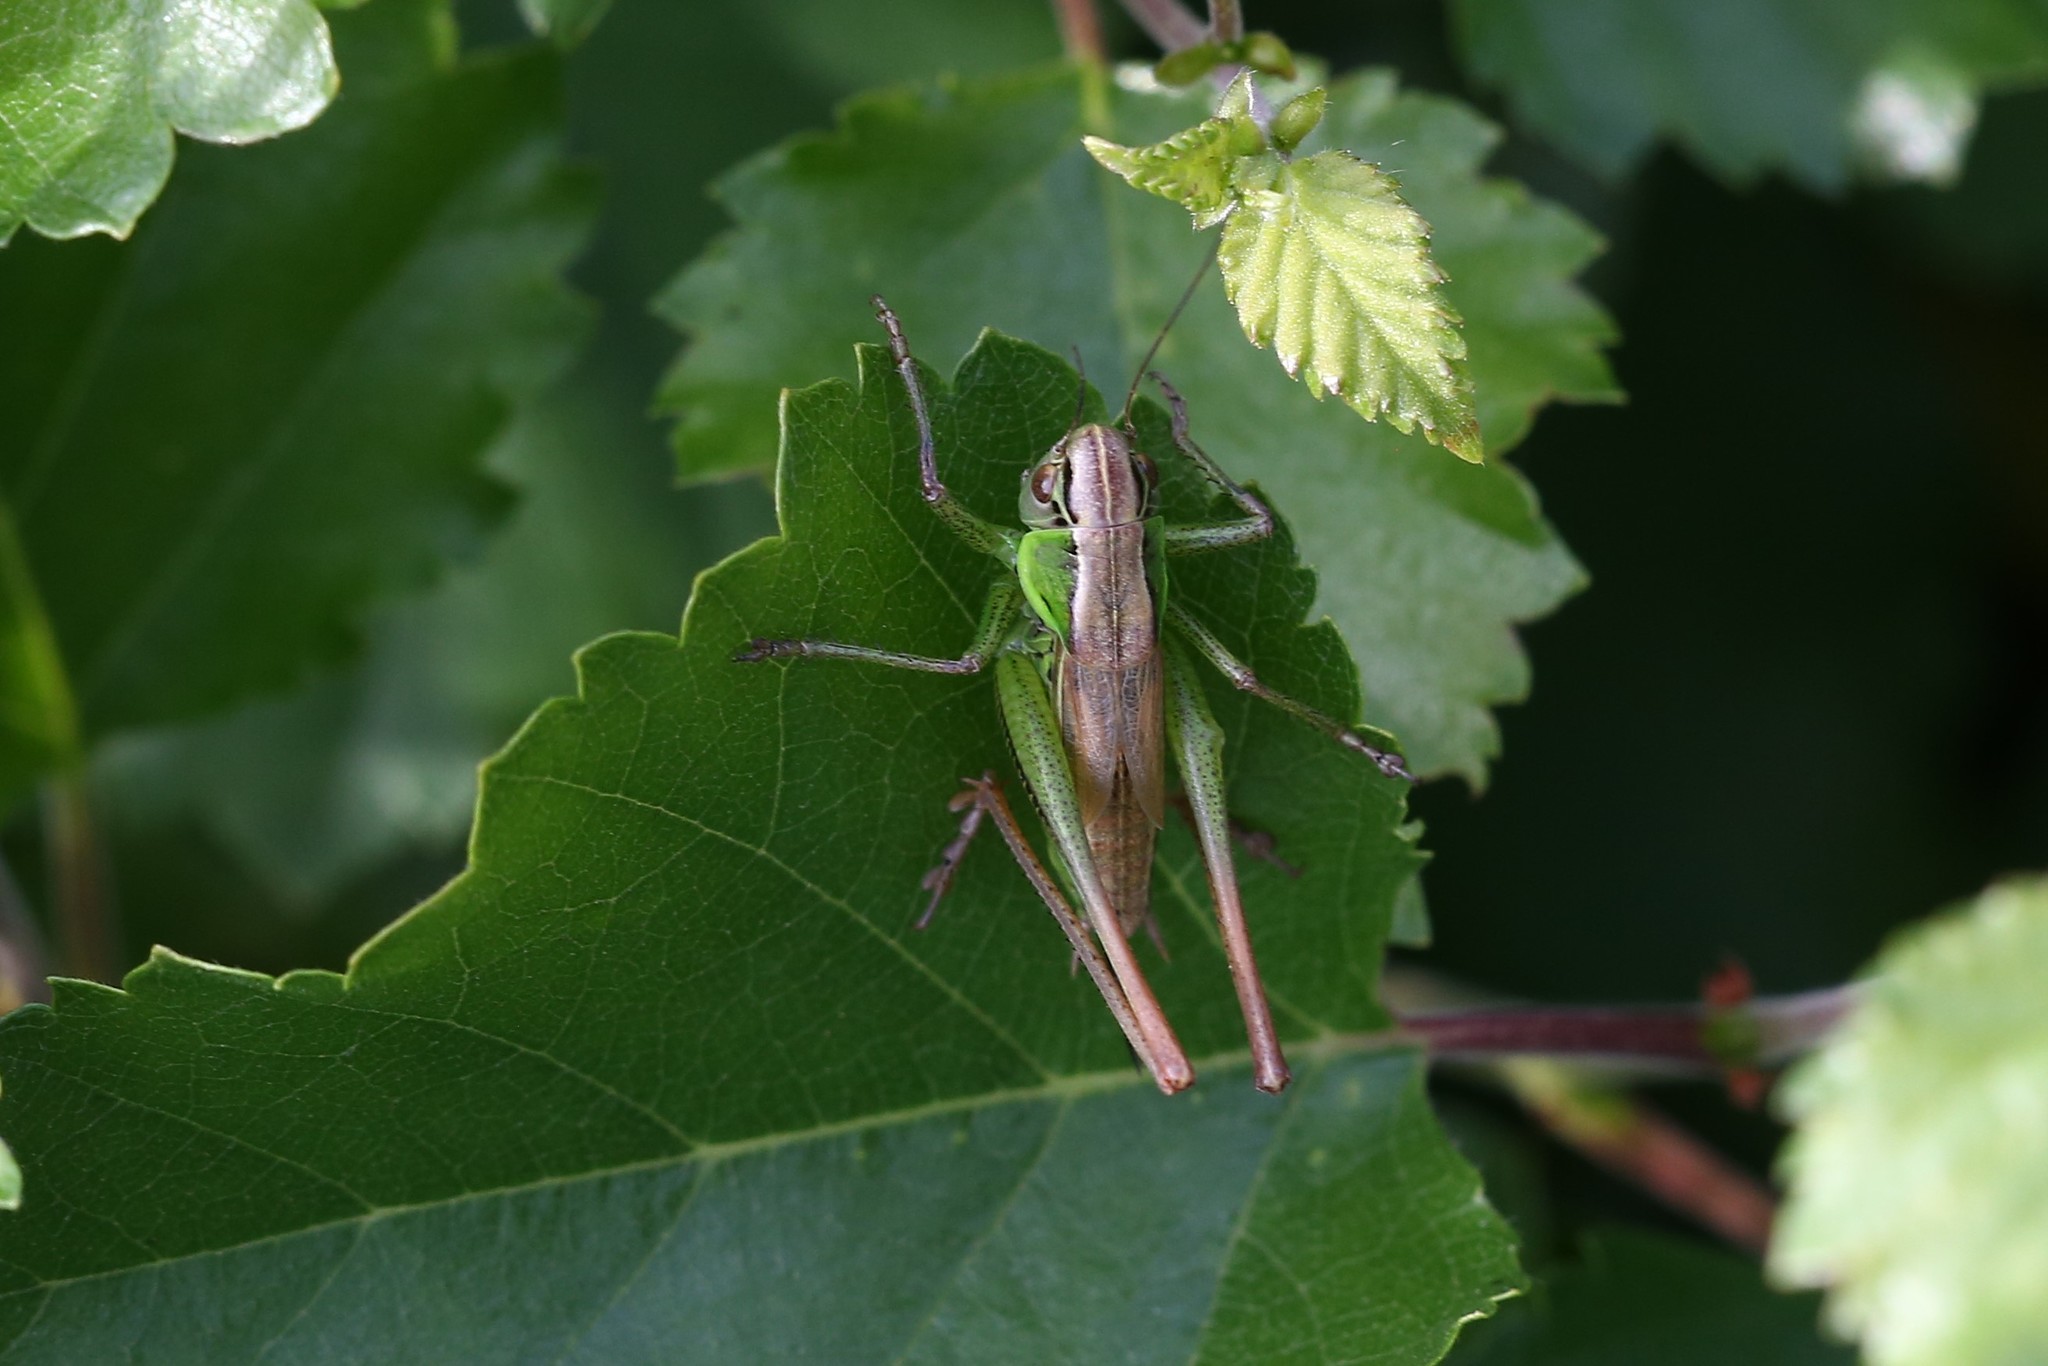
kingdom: Animalia
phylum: Arthropoda
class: Insecta
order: Orthoptera
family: Tettigoniidae
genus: Roeseliana
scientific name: Roeseliana roeselii
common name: Roesel's bush cricket
